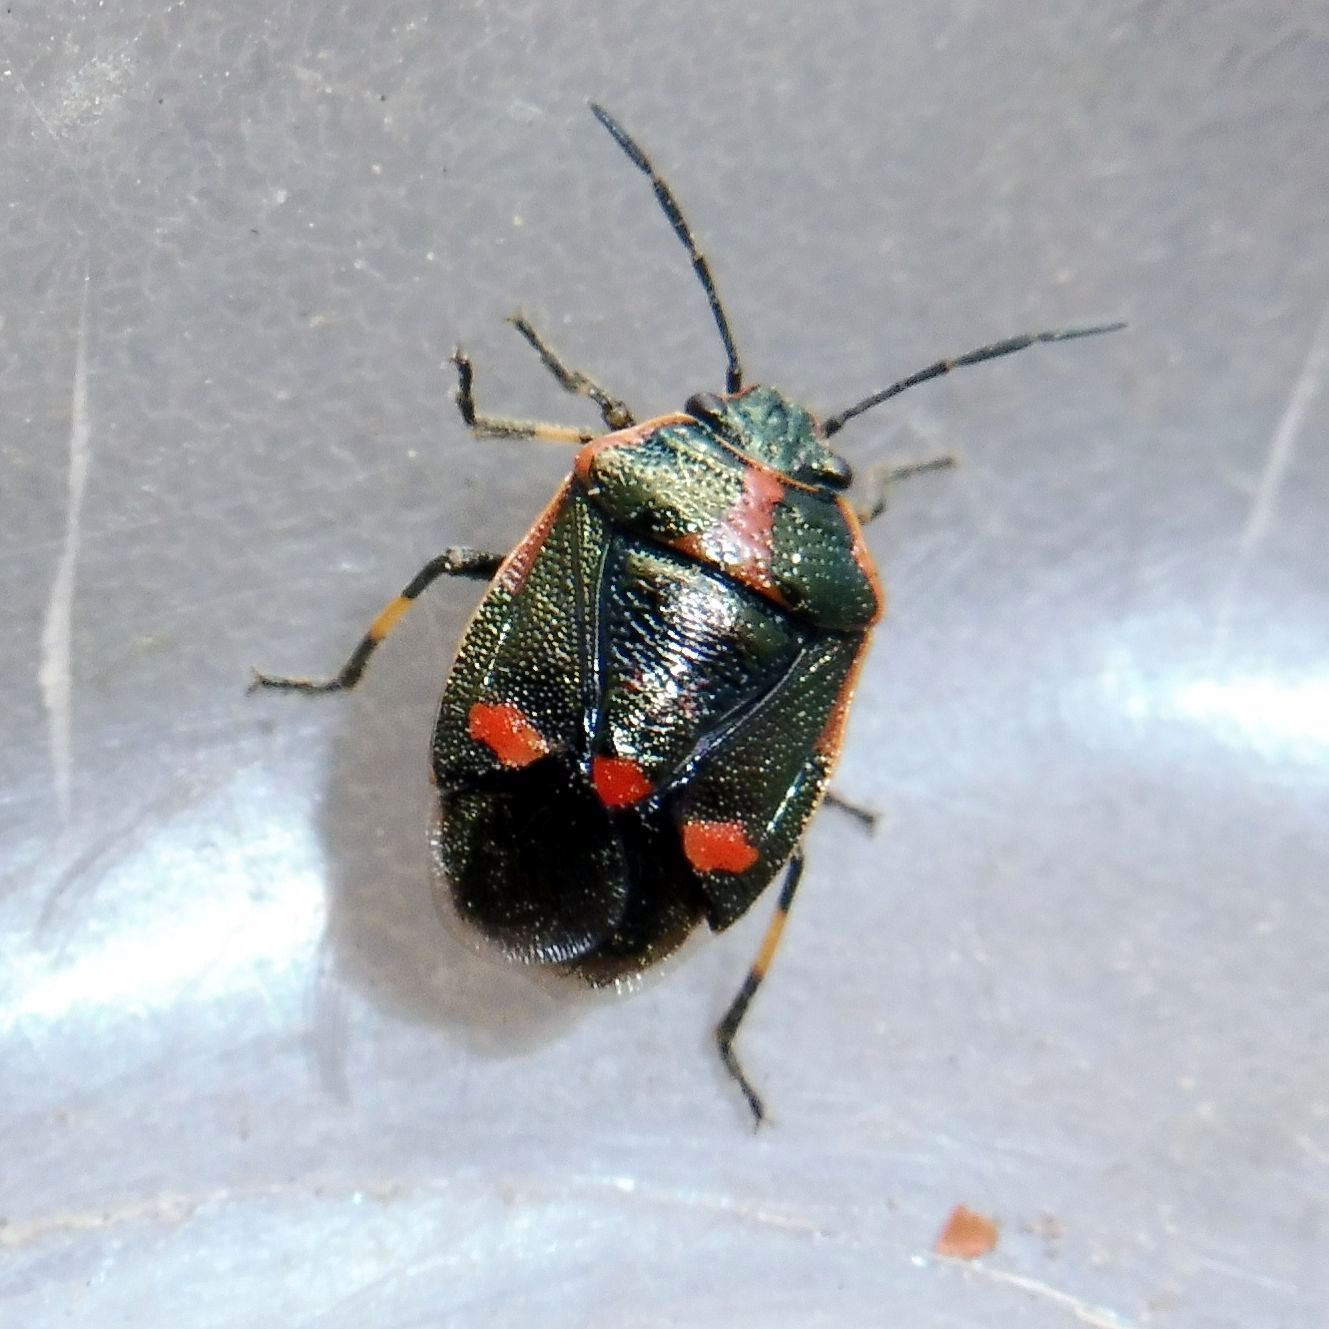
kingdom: Animalia
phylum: Arthropoda
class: Insecta
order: Hemiptera
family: Pentatomidae
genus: Eurydema
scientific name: Eurydema oleracea
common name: Cabbage bug
